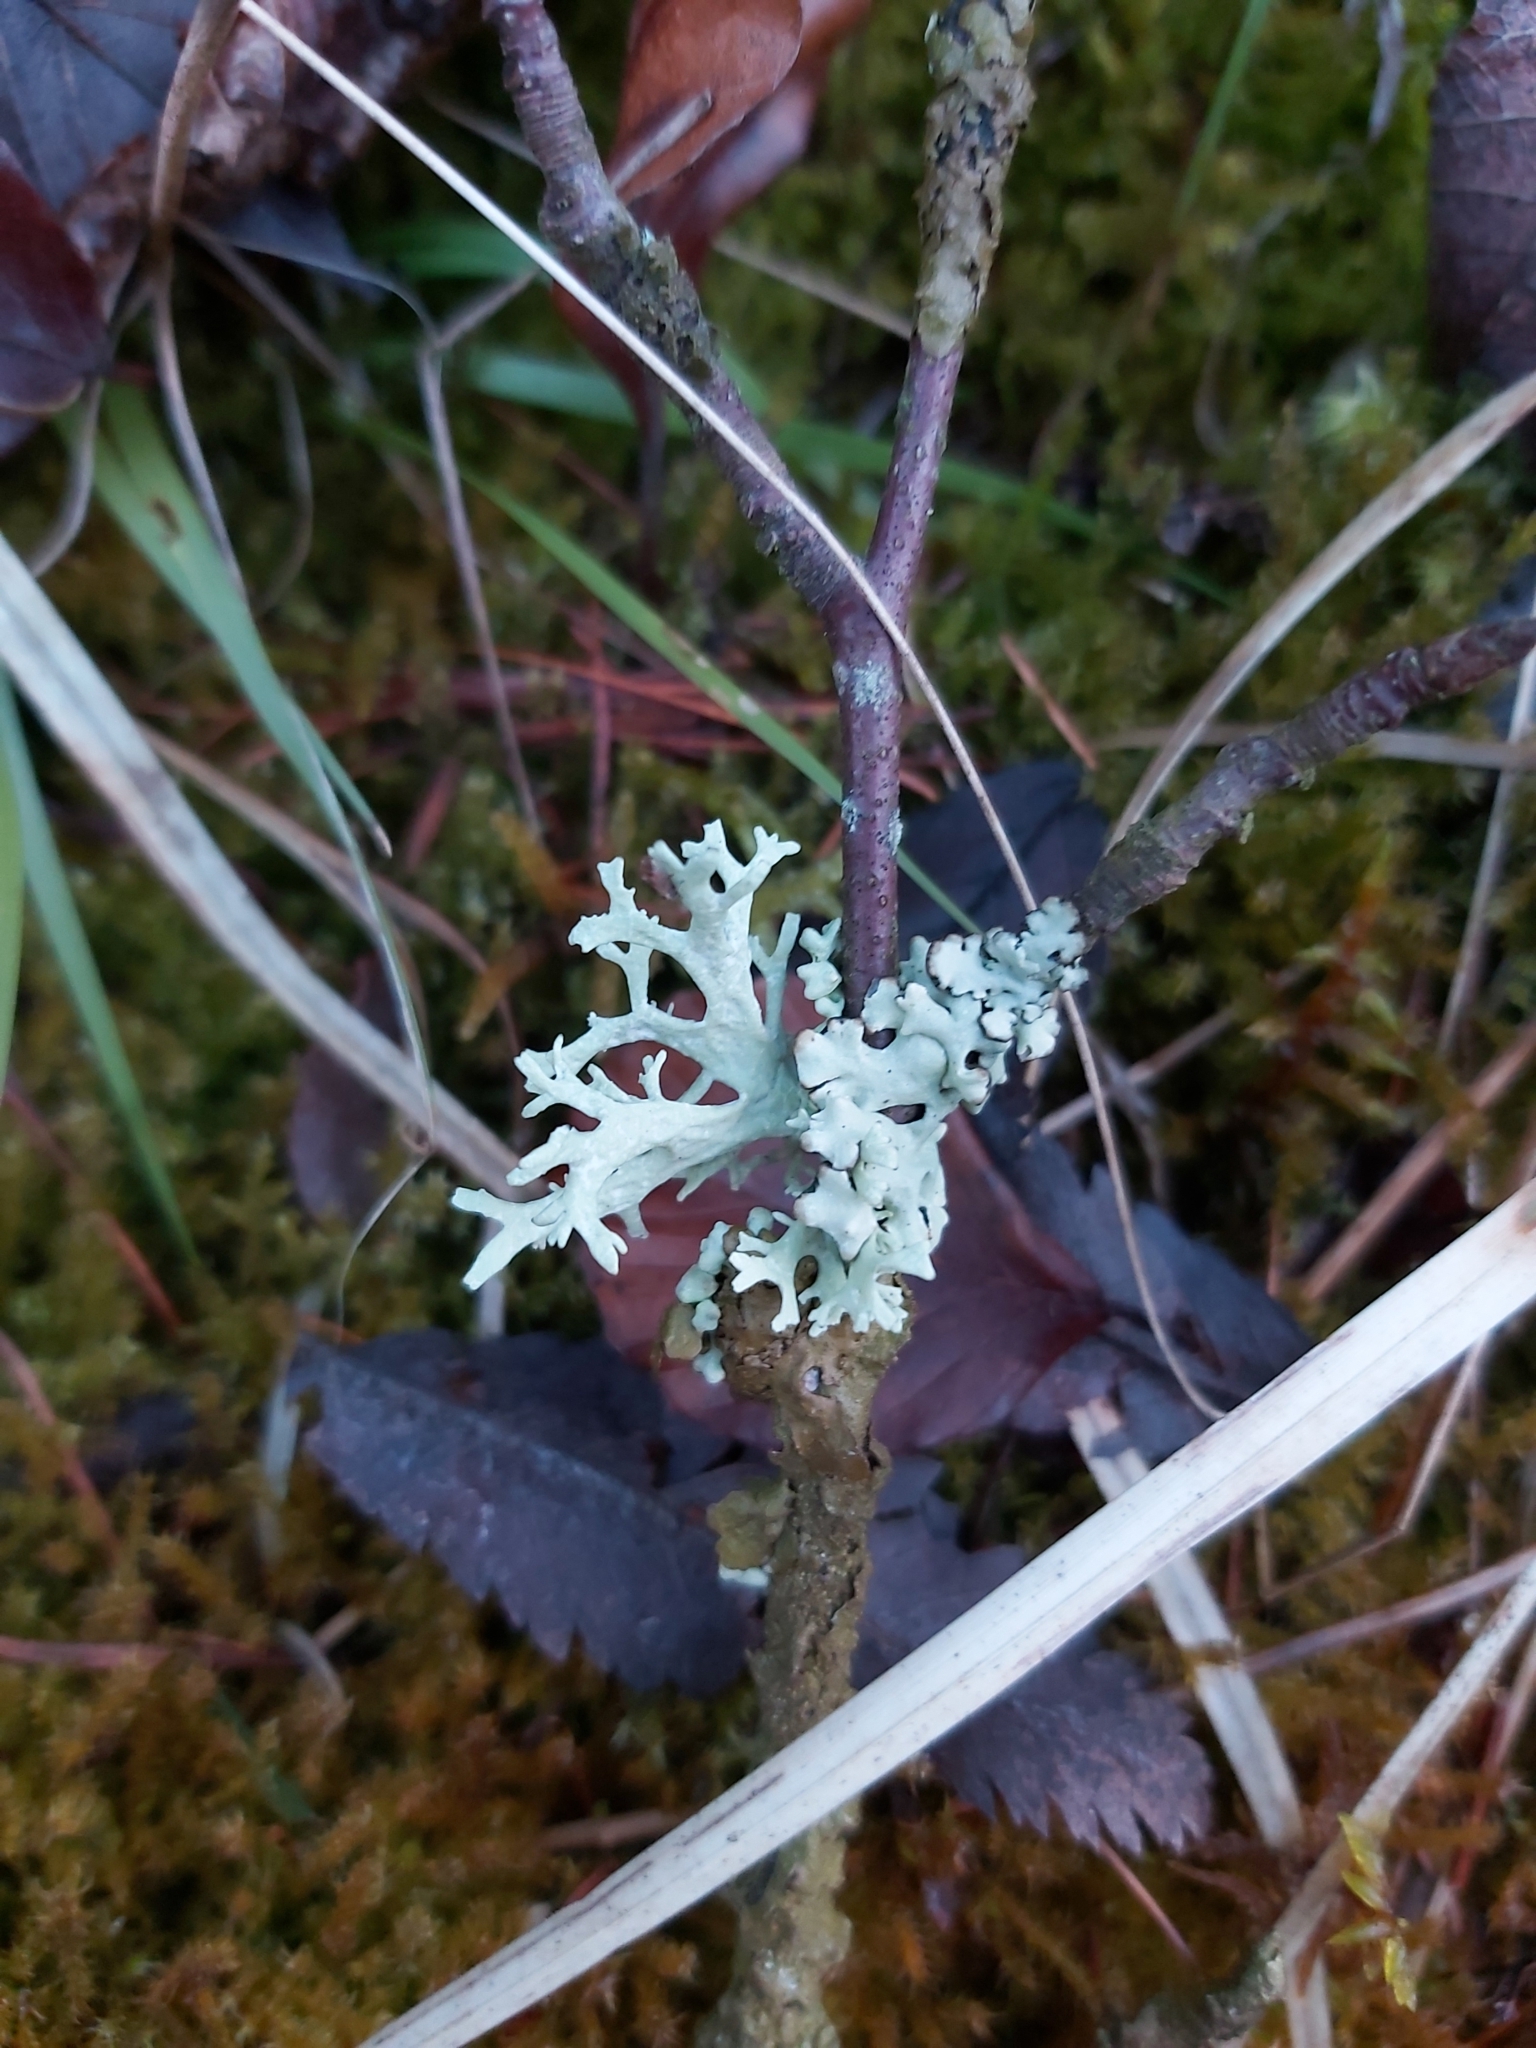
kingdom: Fungi
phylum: Ascomycota
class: Lecanoromycetes
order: Lecanorales
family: Parmeliaceae
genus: Hypogymnia
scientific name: Hypogymnia physodes
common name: Dark crottle
